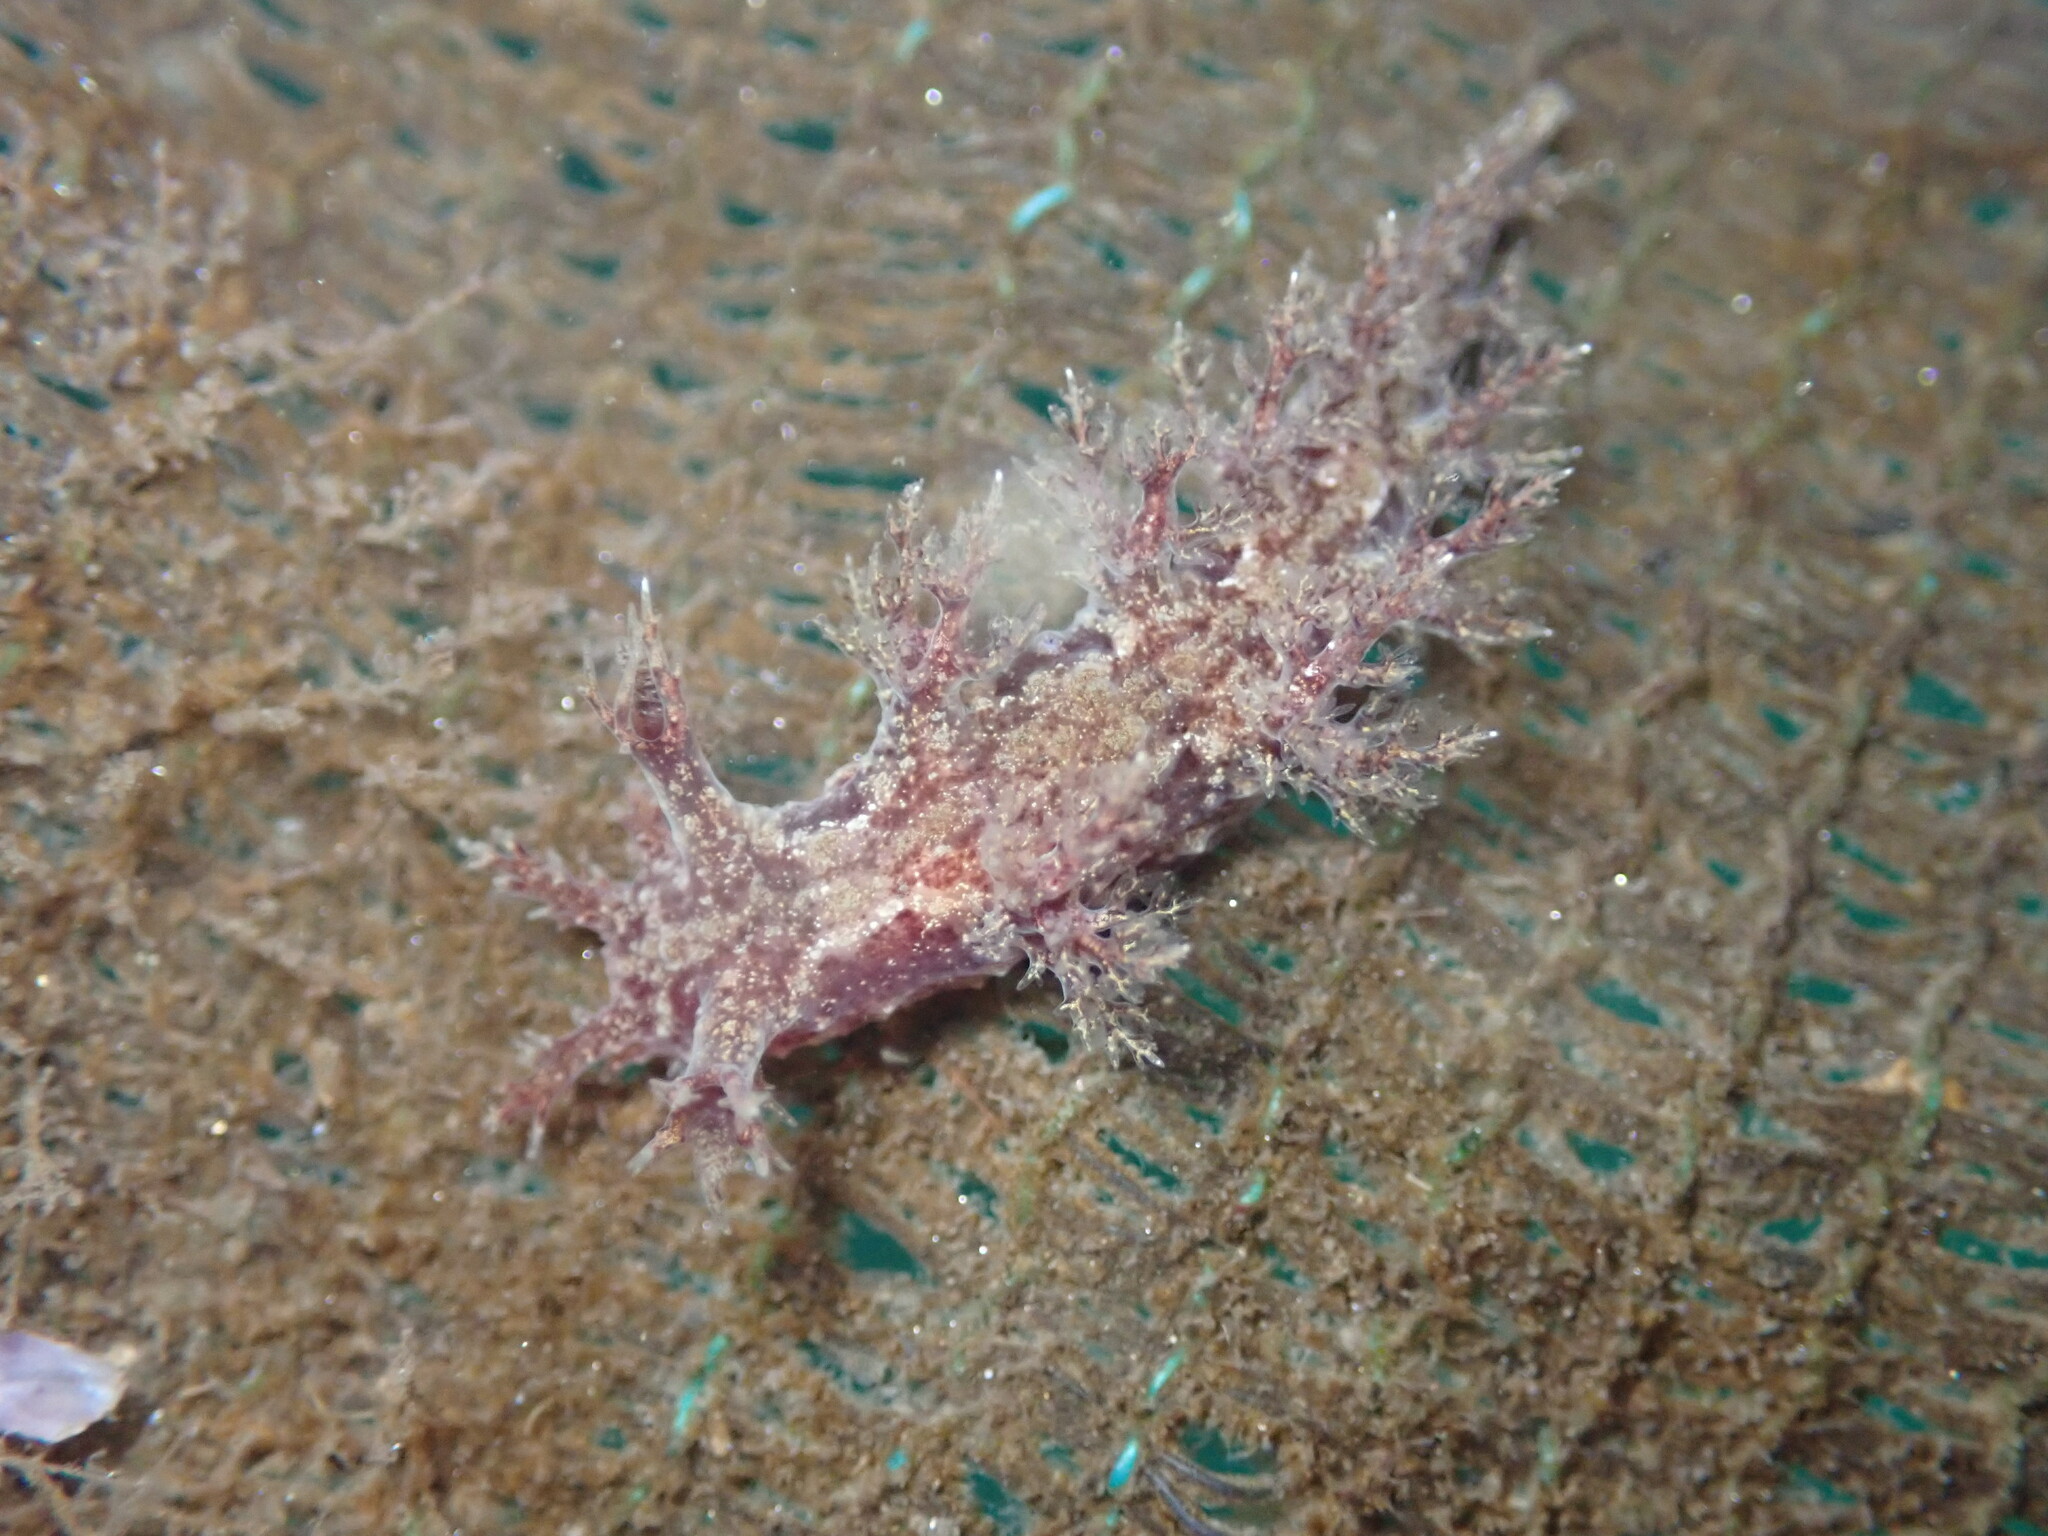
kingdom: Animalia
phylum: Mollusca
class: Gastropoda
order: Nudibranchia
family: Dendronotidae
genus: Dendronotus
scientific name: Dendronotus venustus
